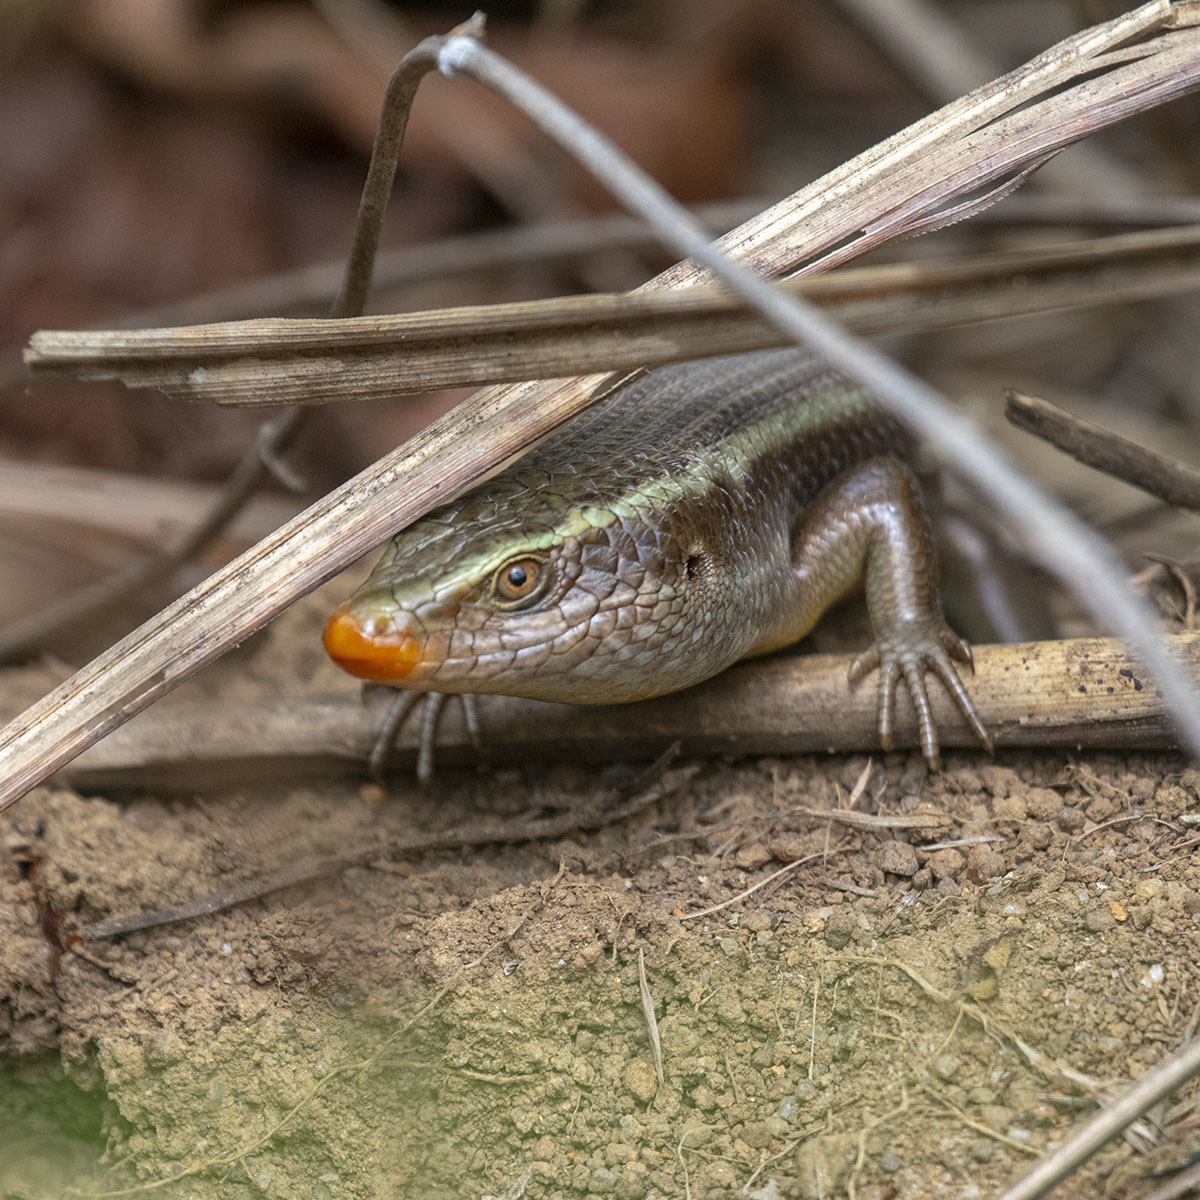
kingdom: Animalia
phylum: Chordata
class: Squamata
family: Scincidae
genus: Eutropis
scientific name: Eutropis carinata
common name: Keeled indian mabuya
